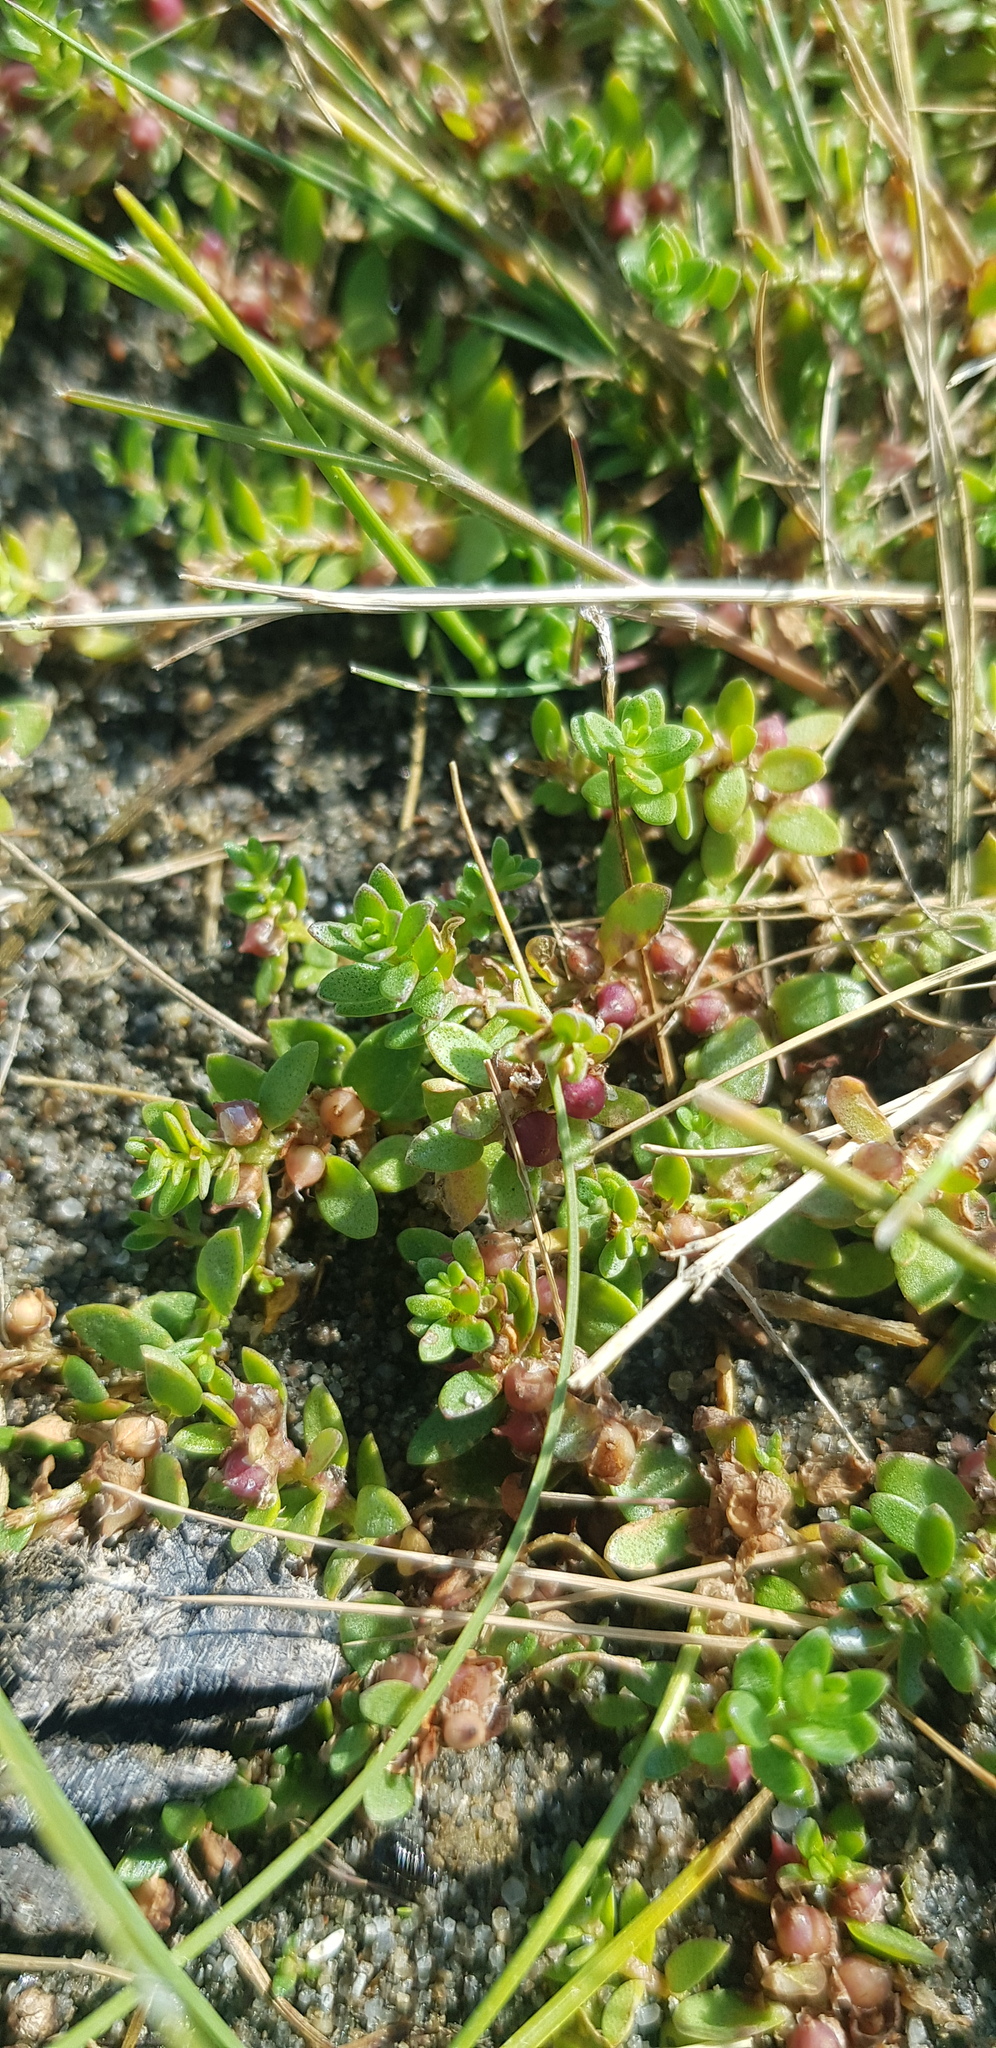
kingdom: Plantae
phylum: Tracheophyta
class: Magnoliopsida
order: Ericales
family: Primulaceae
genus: Lysimachia
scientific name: Lysimachia maritima
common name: Sea milkwort
